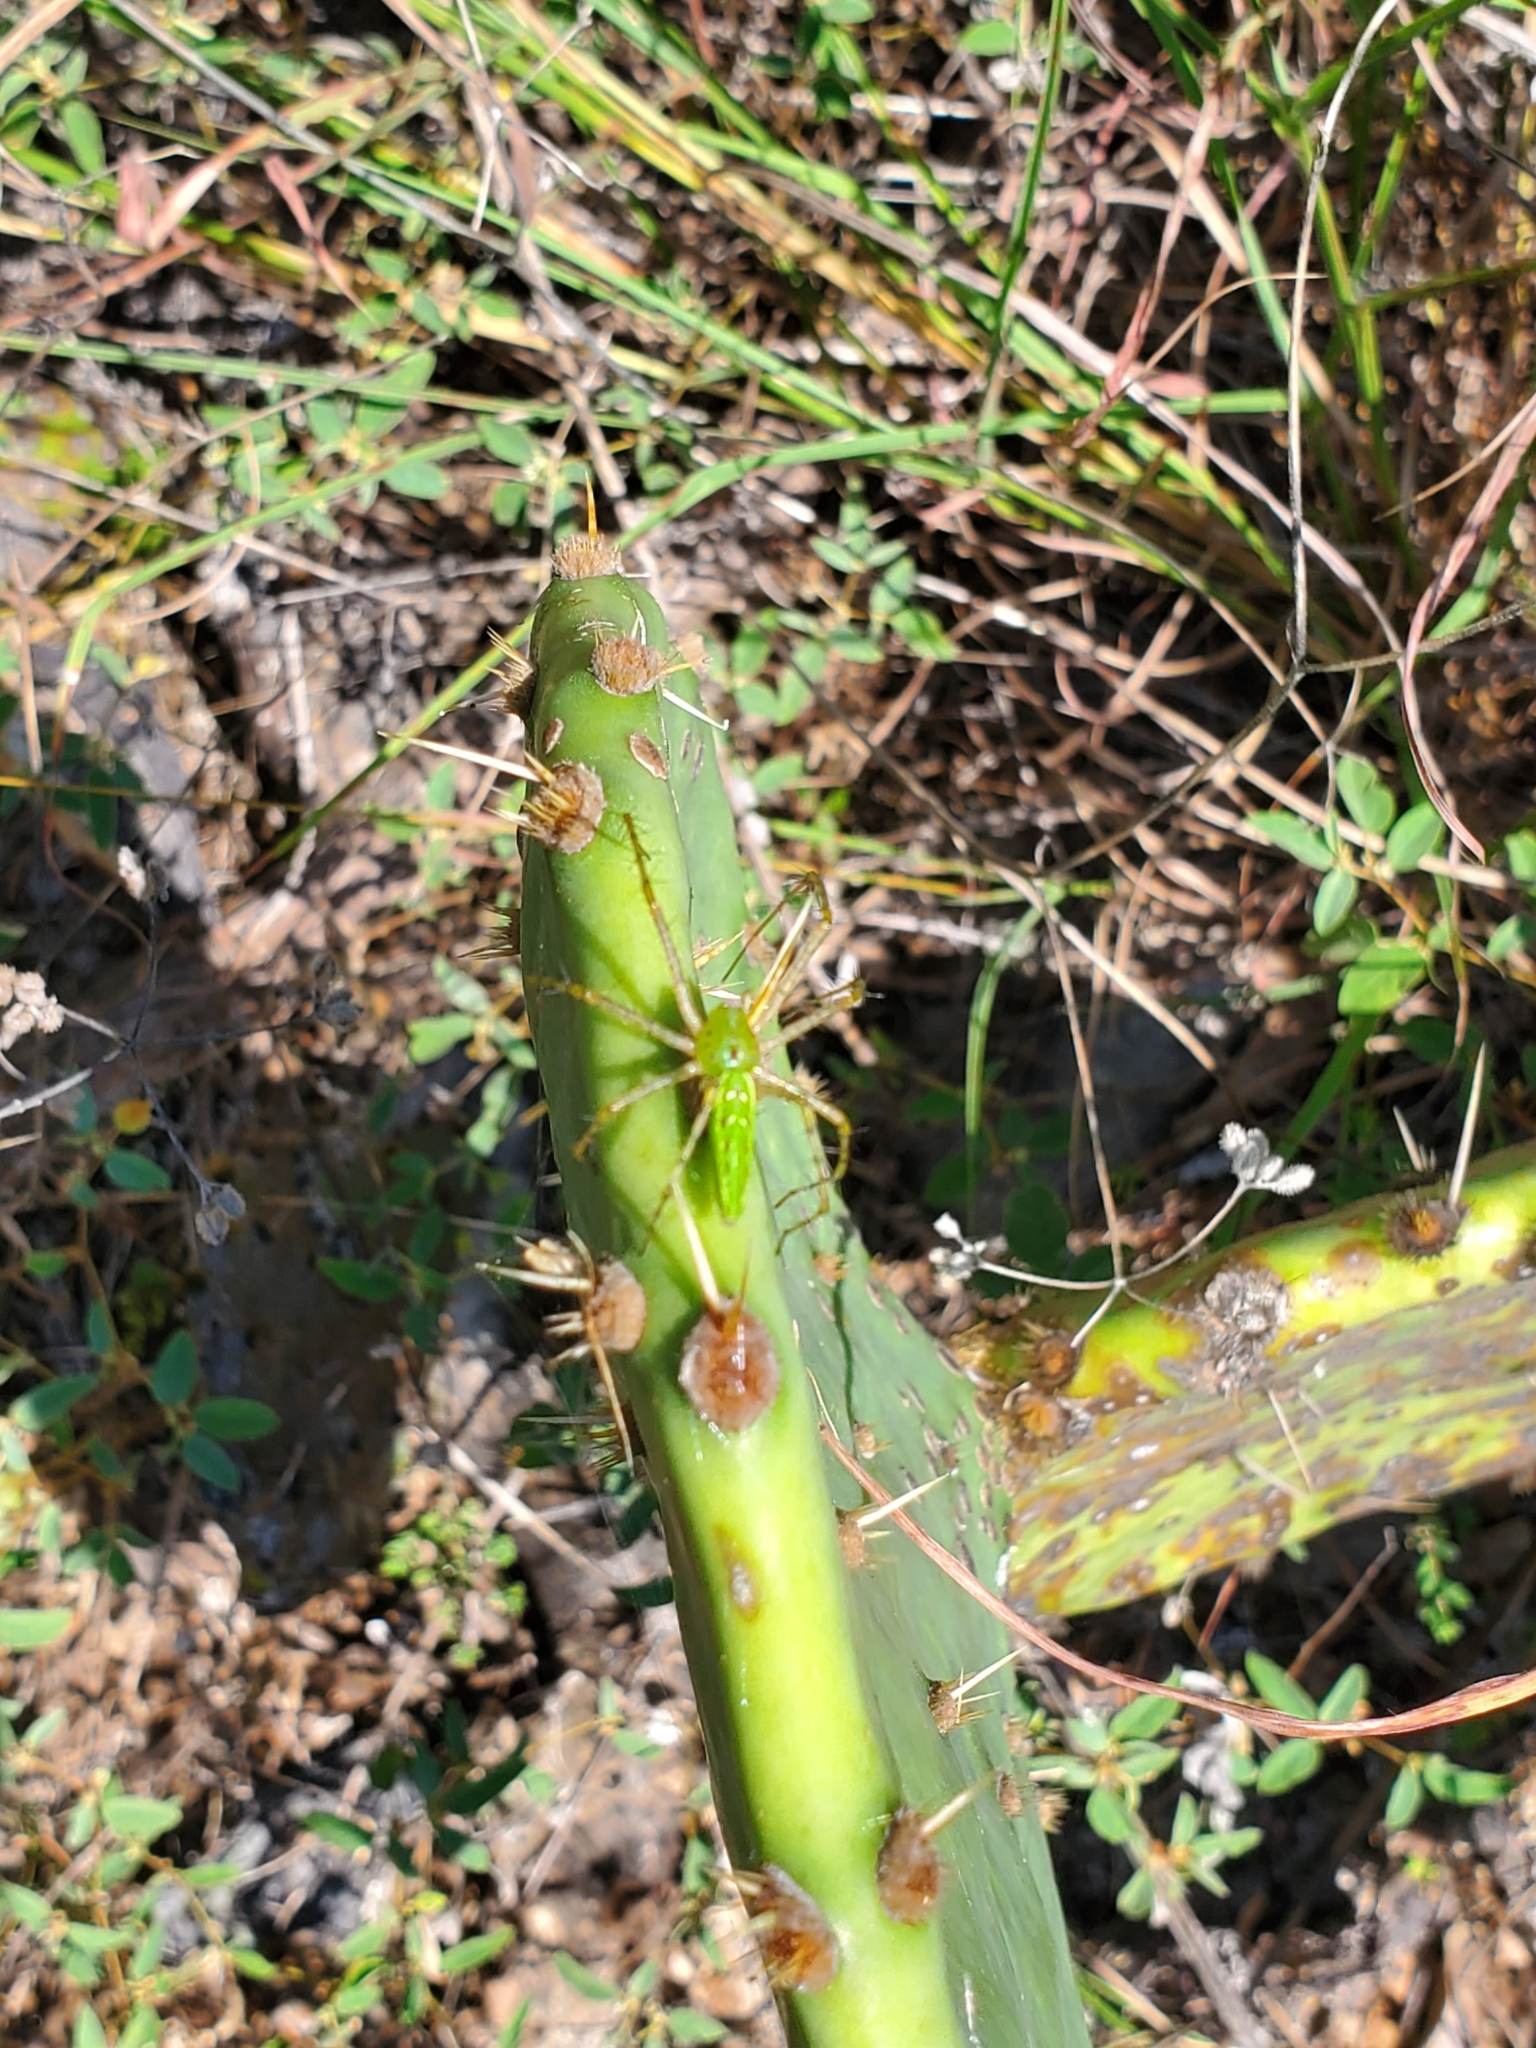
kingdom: Animalia
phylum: Arthropoda
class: Arachnida
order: Araneae
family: Oxyopidae
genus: Peucetia
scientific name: Peucetia viridans
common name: Lynx spiders
